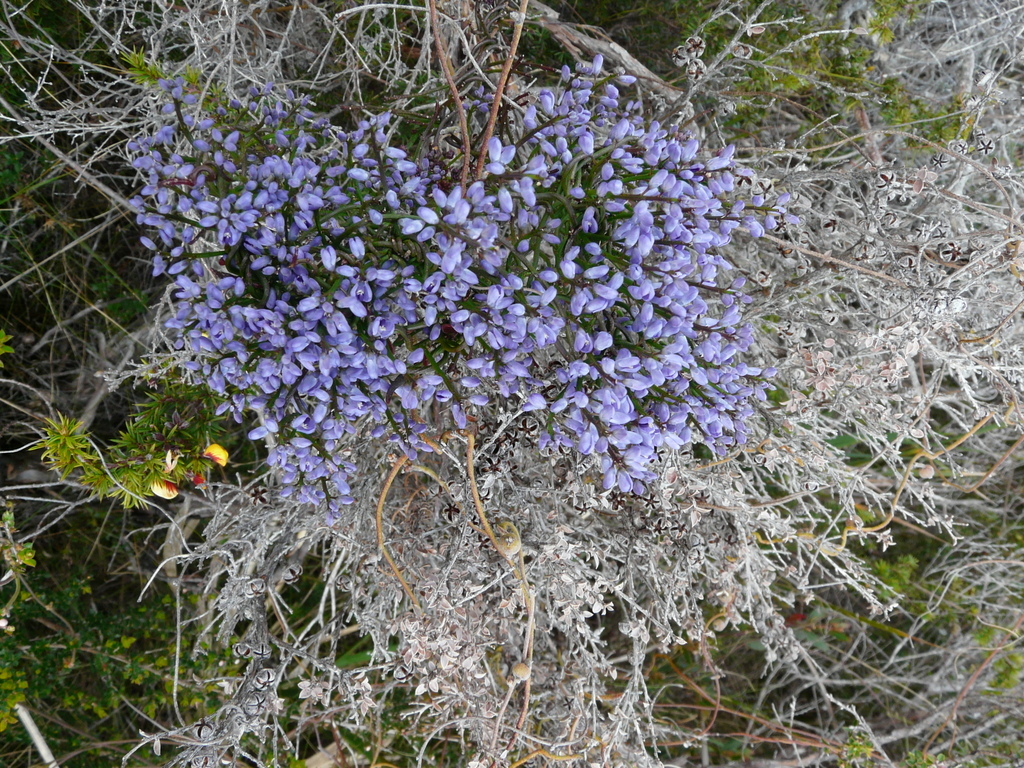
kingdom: Plantae
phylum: Tracheophyta
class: Magnoliopsida
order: Fabales
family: Polygalaceae
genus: Comesperma
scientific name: Comesperma volubile
